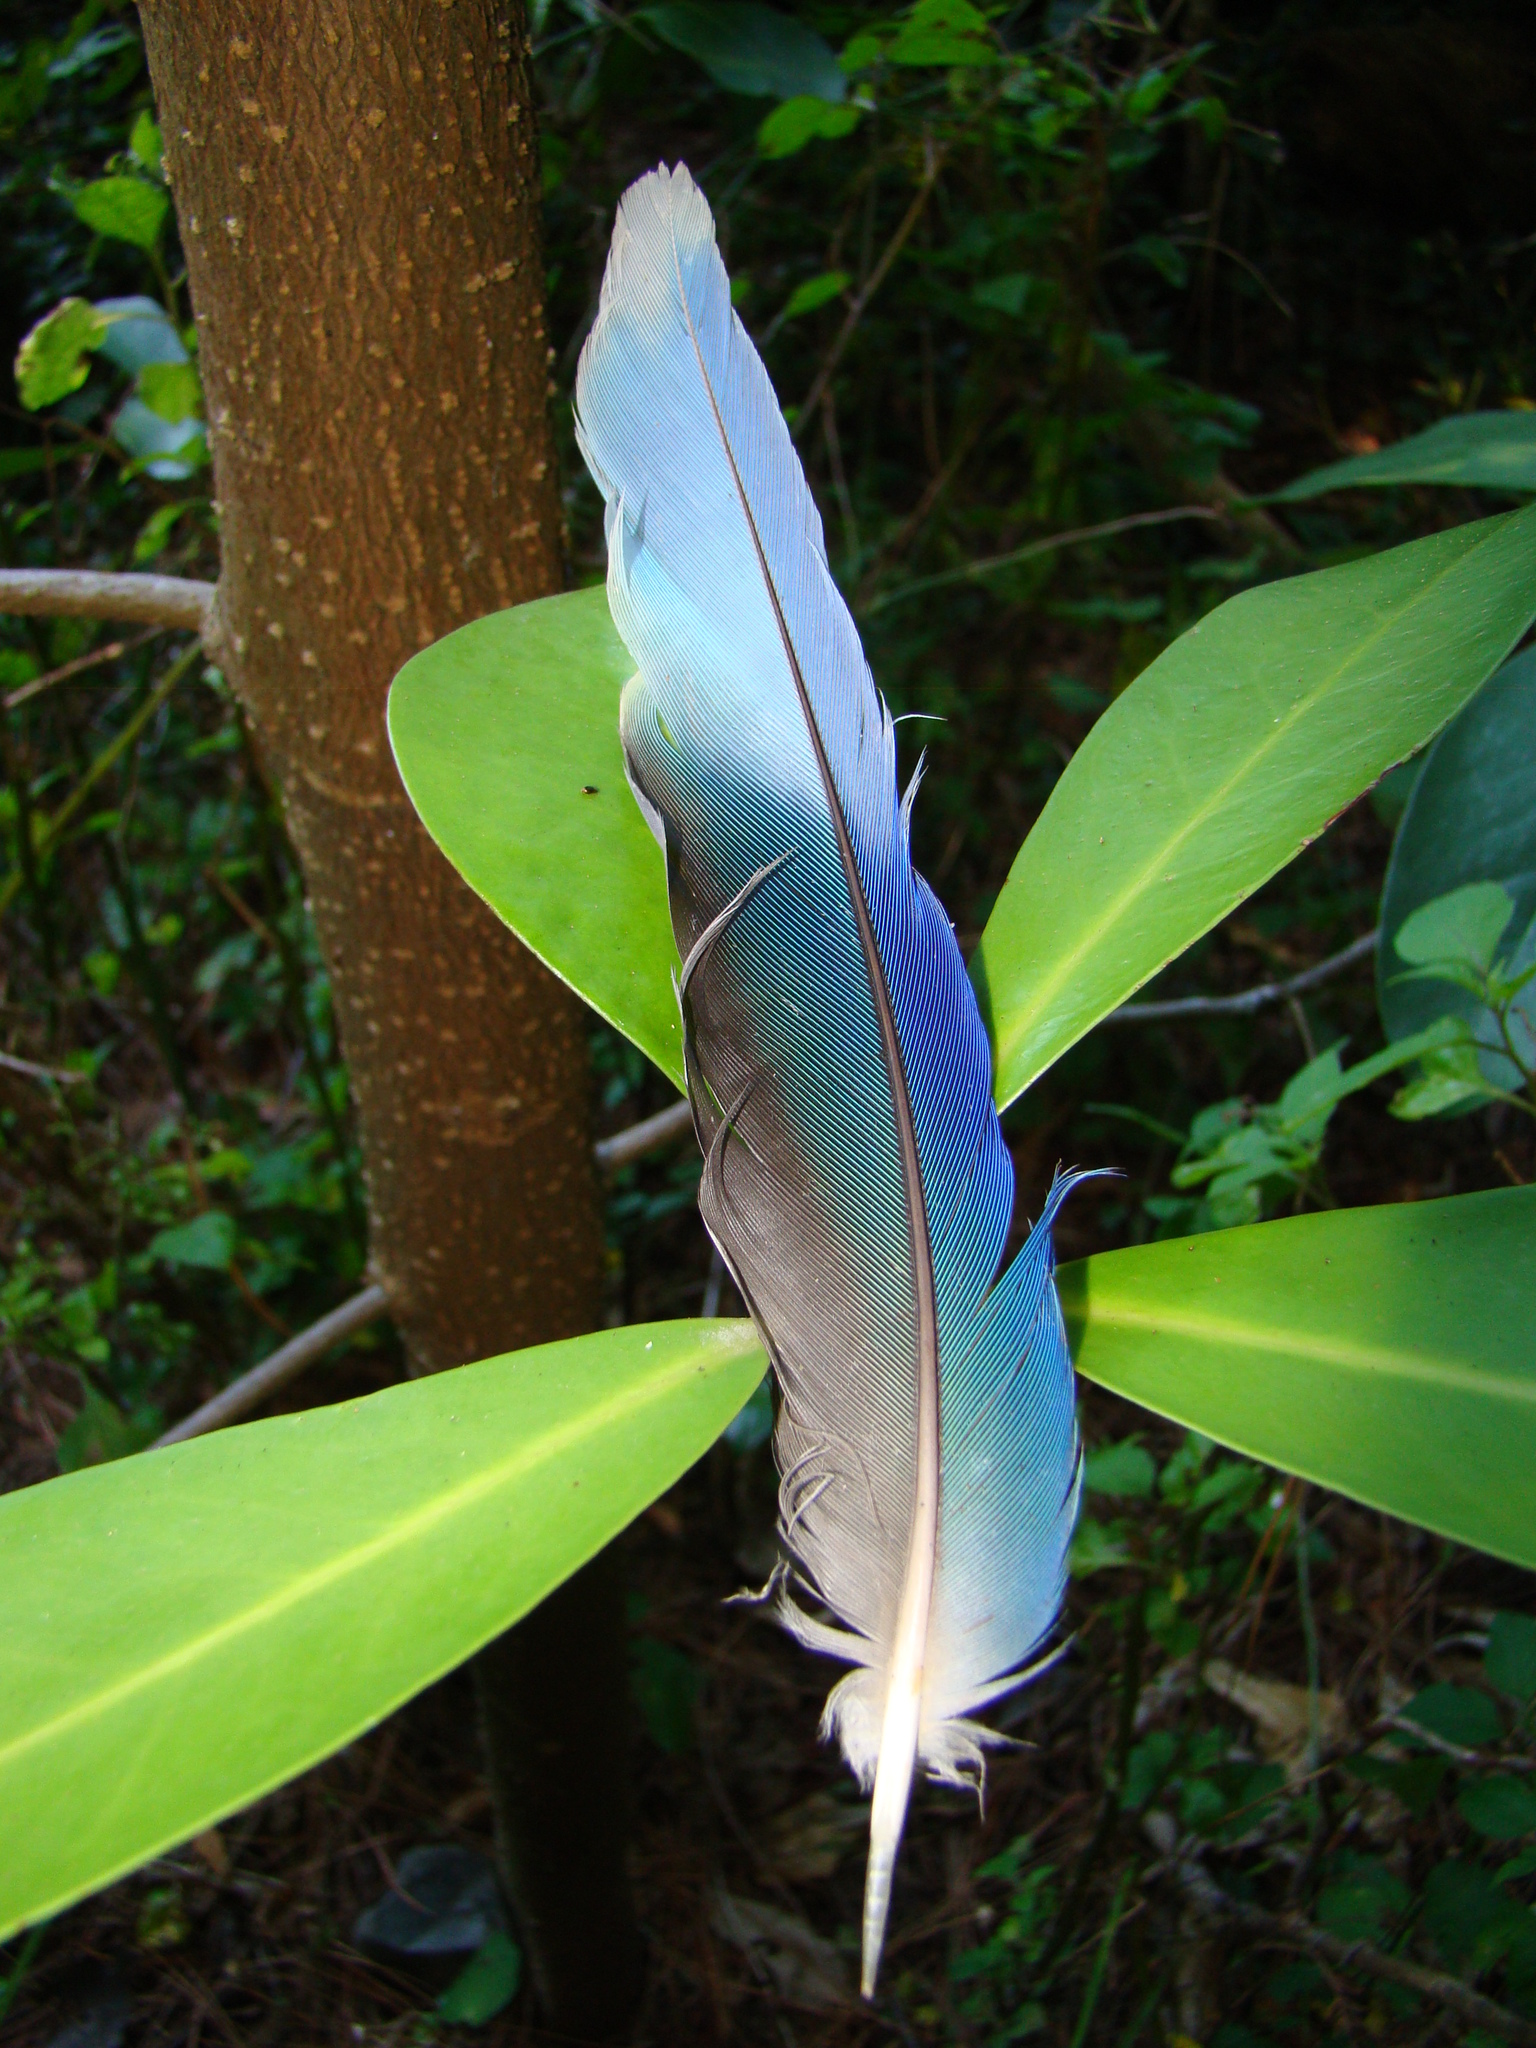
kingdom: Animalia
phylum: Chordata
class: Aves
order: Psittaciformes
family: Psittacidae
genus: Platycercus
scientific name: Platycercus eximius
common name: Eastern rosella
